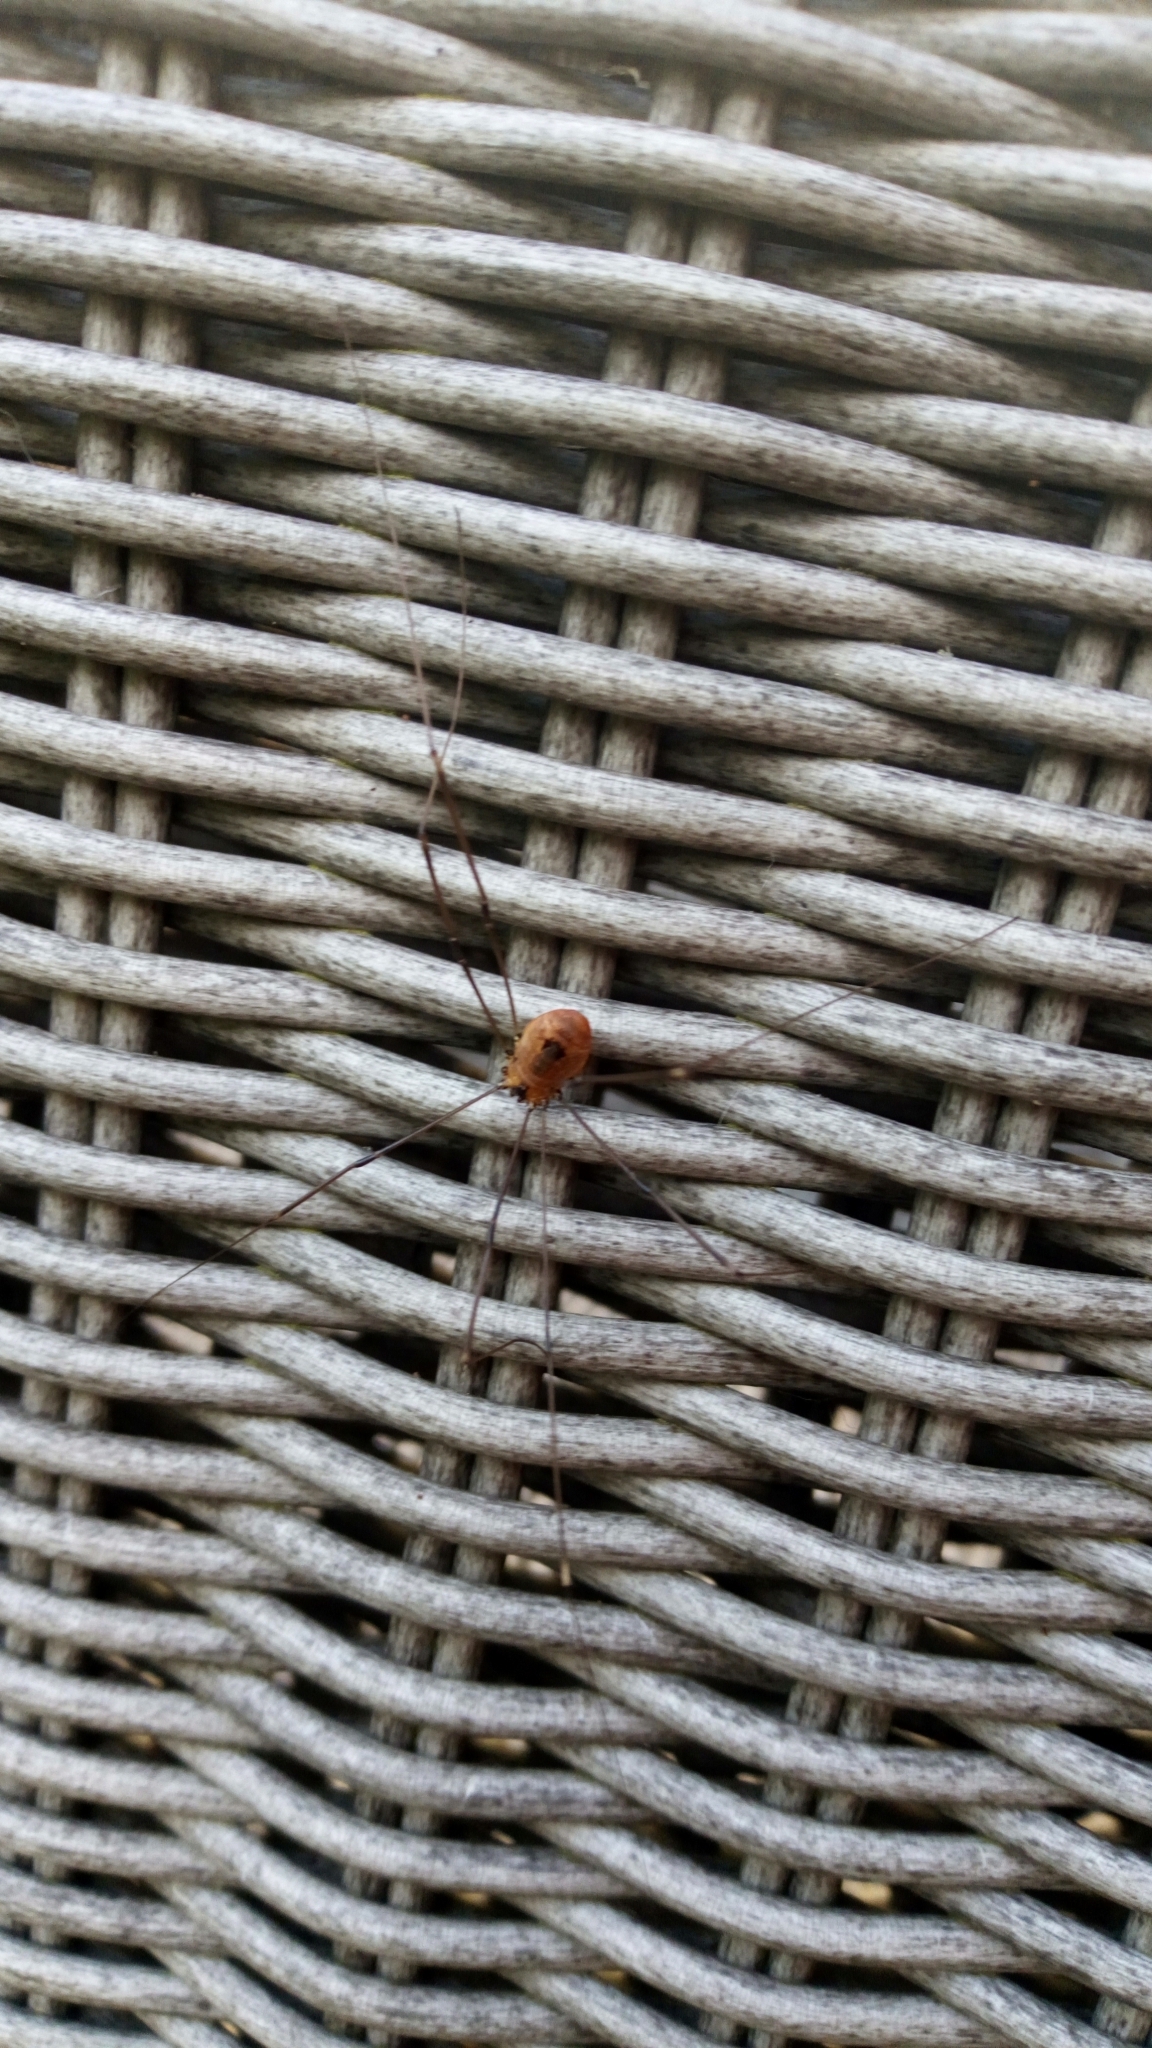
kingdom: Animalia
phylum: Arthropoda
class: Arachnida
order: Opiliones
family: Sclerosomatidae
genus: Leiobunum
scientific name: Leiobunum rotundum
